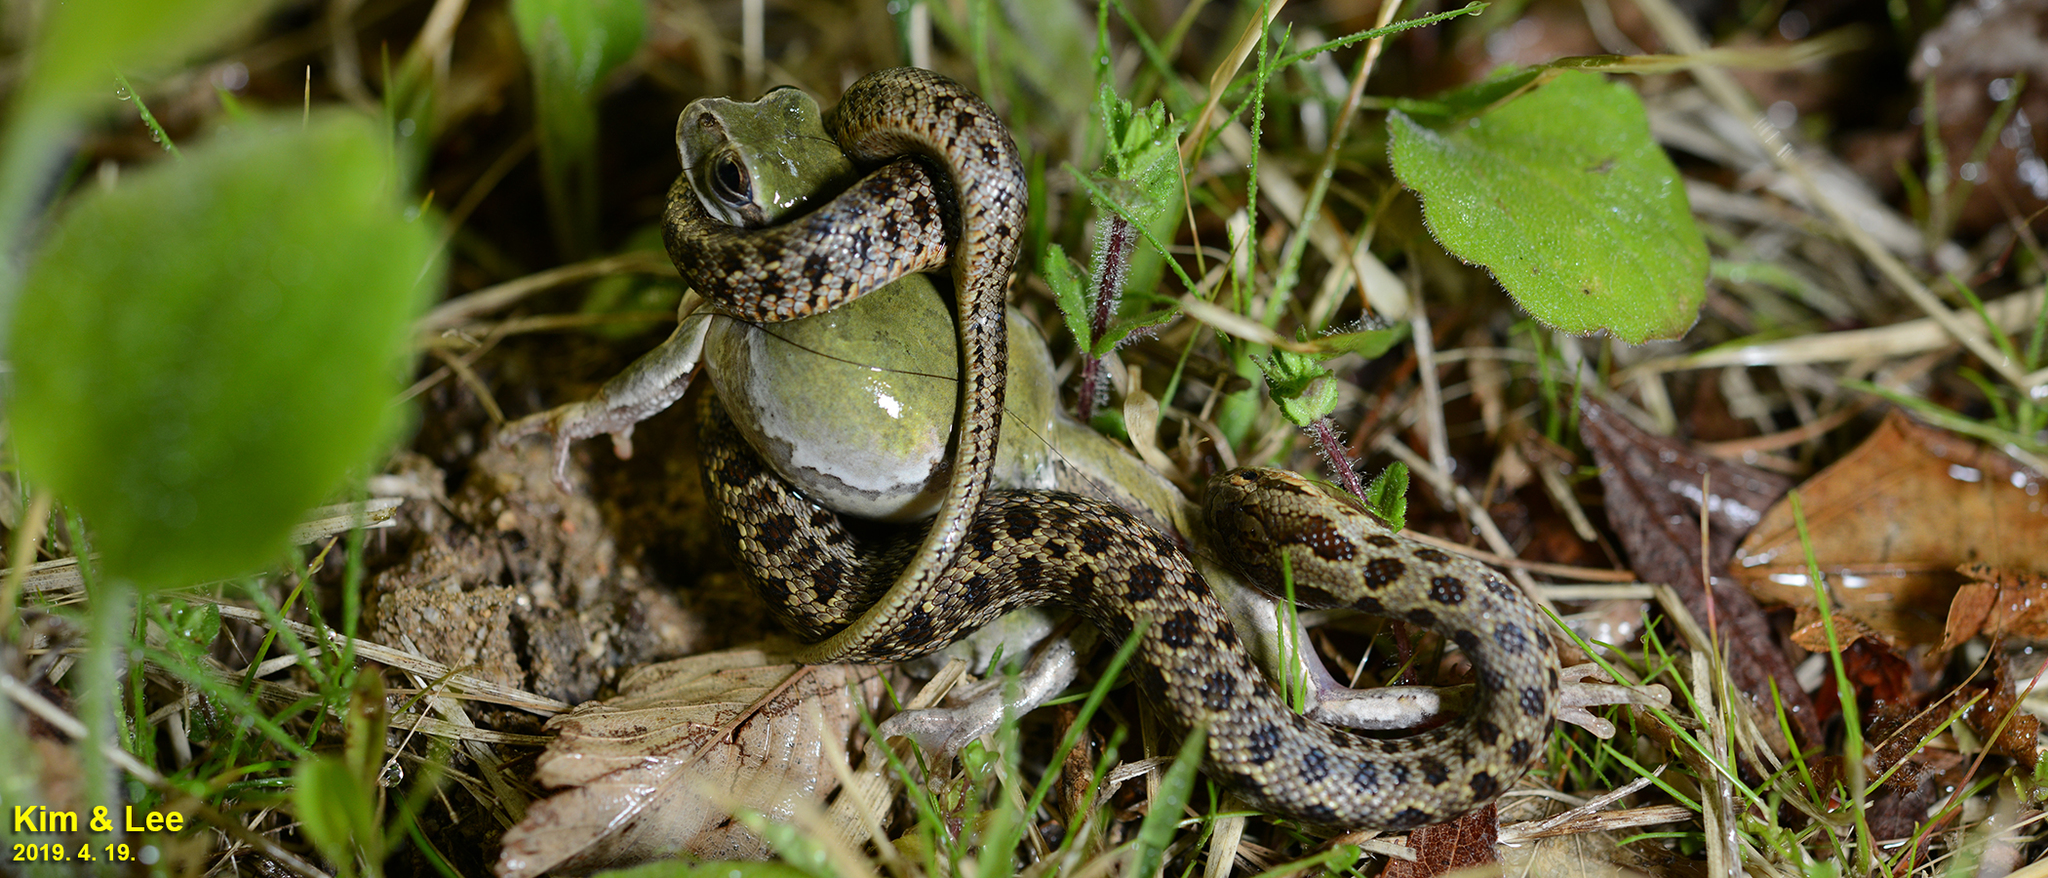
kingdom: Animalia
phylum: Chordata
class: Squamata
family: Colubridae
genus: Elaphe
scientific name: Elaphe dione
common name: Dione ratsnake
